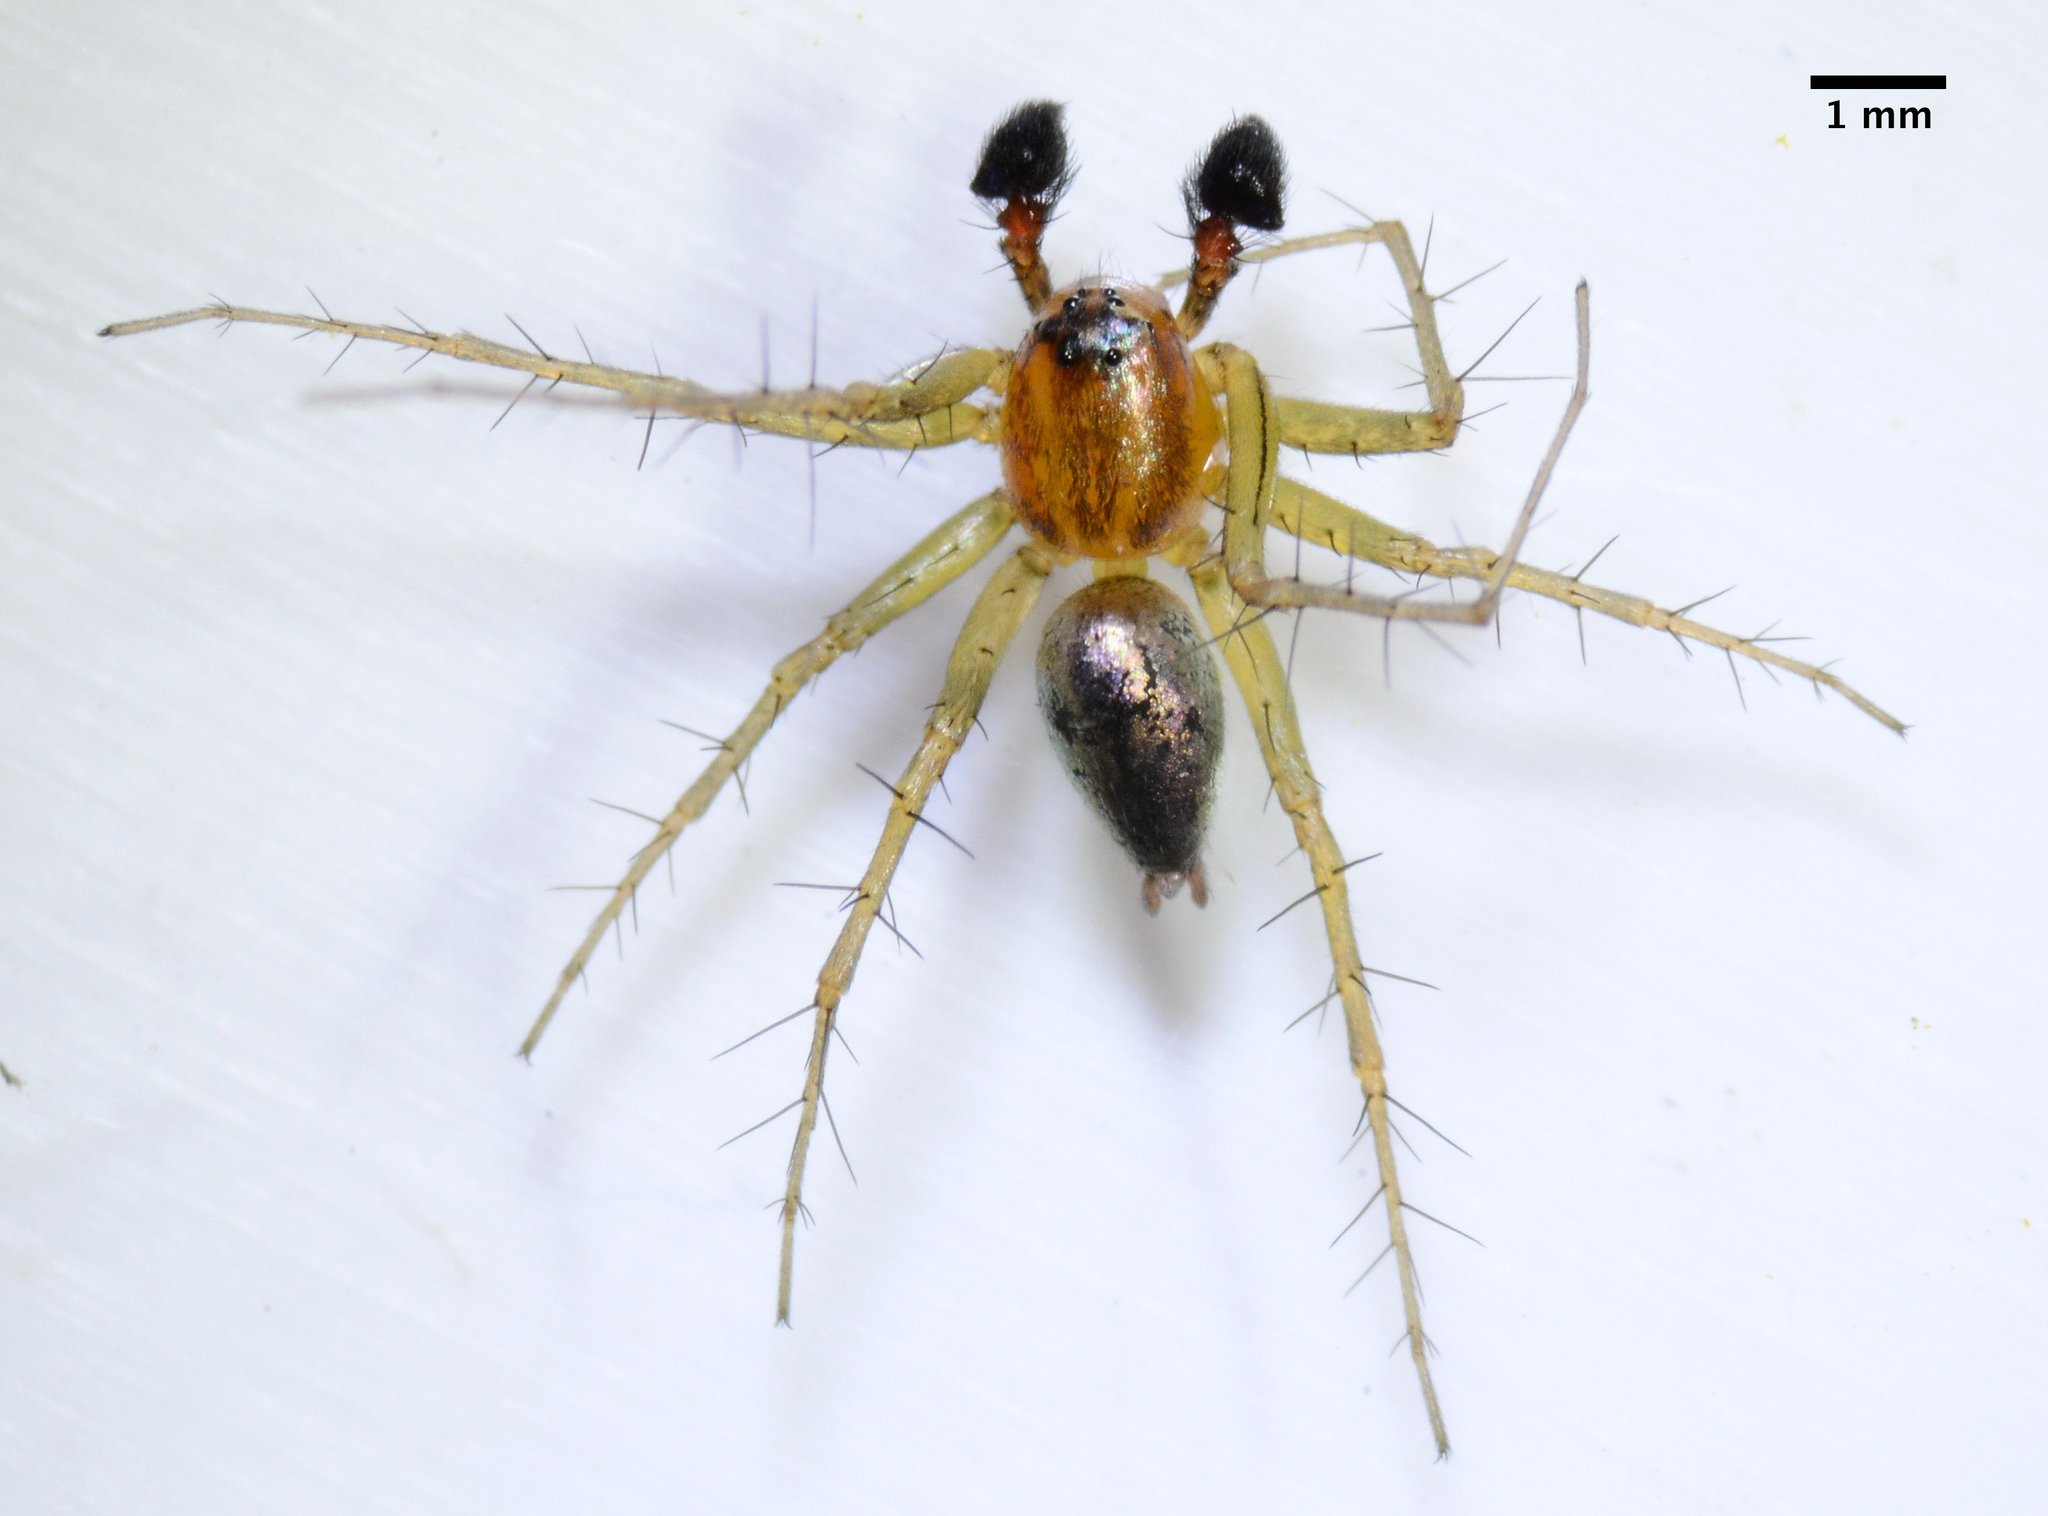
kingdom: Animalia
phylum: Arthropoda
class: Arachnida
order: Araneae
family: Oxyopidae
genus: Oxyopes
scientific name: Oxyopes salticus
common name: Lynx spiders
